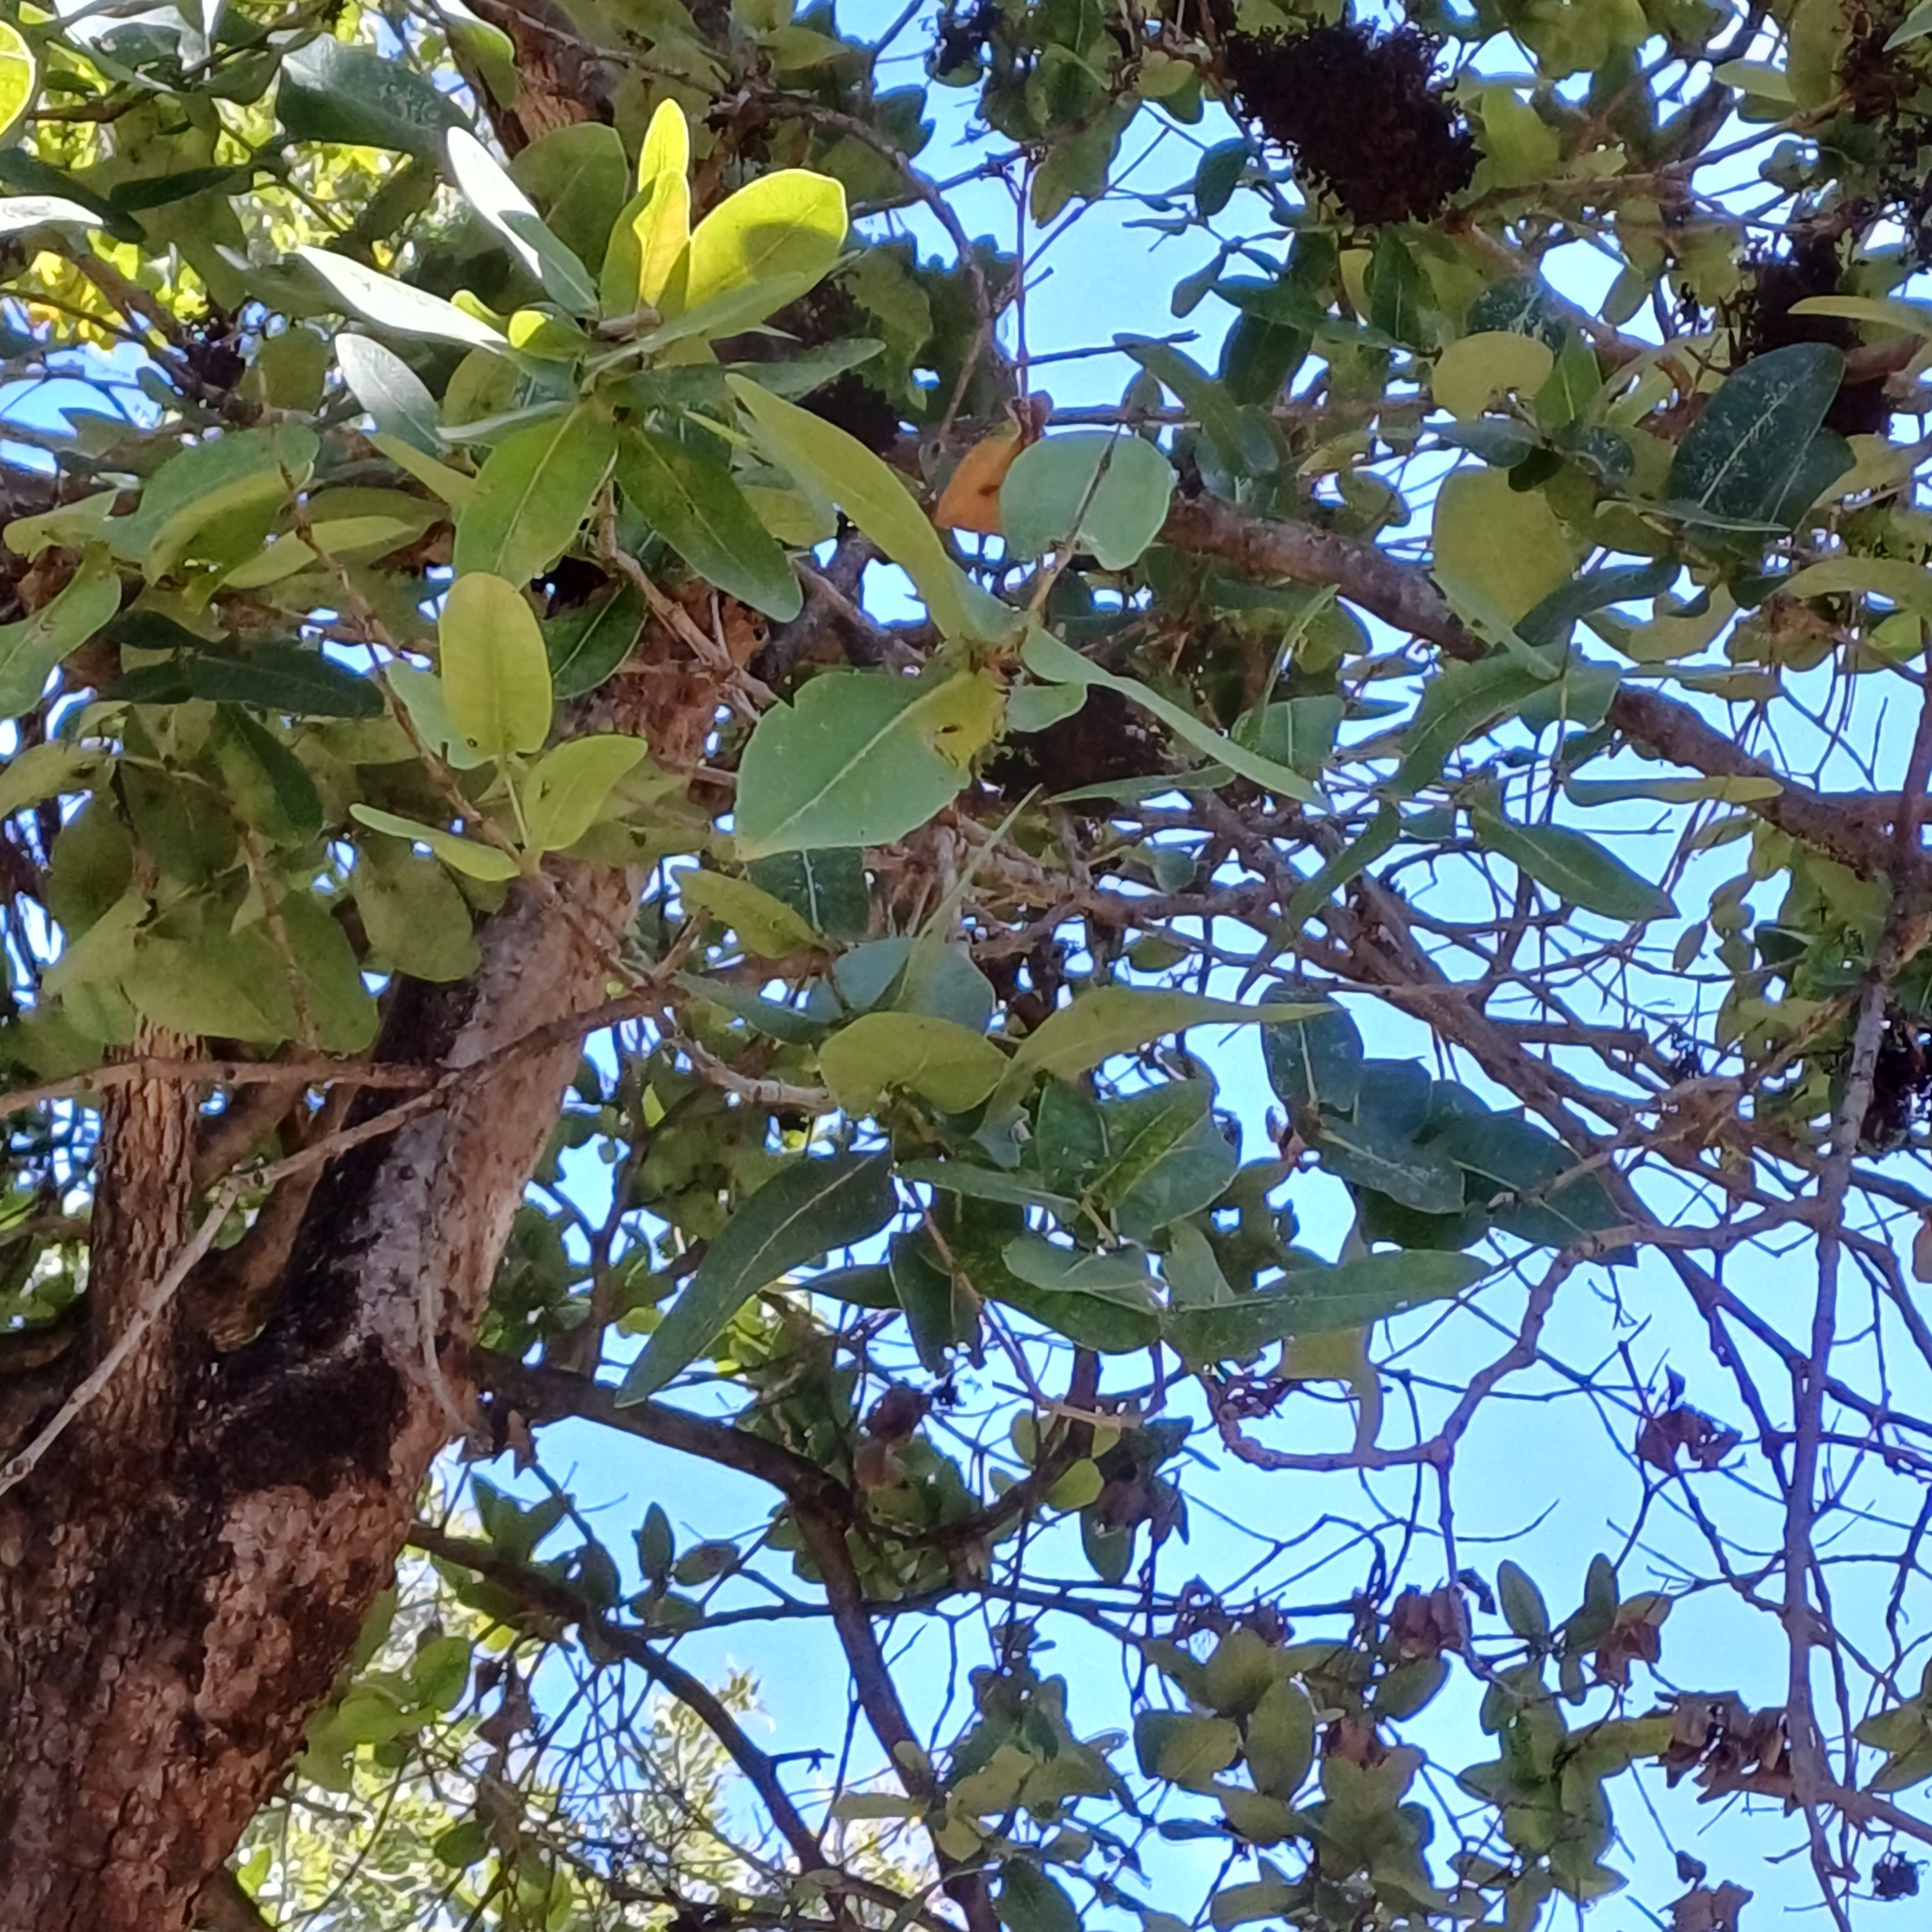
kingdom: Plantae
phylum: Tracheophyta
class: Magnoliopsida
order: Myrtales
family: Myrtaceae
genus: Syzygium
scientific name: Syzygium cordatum
